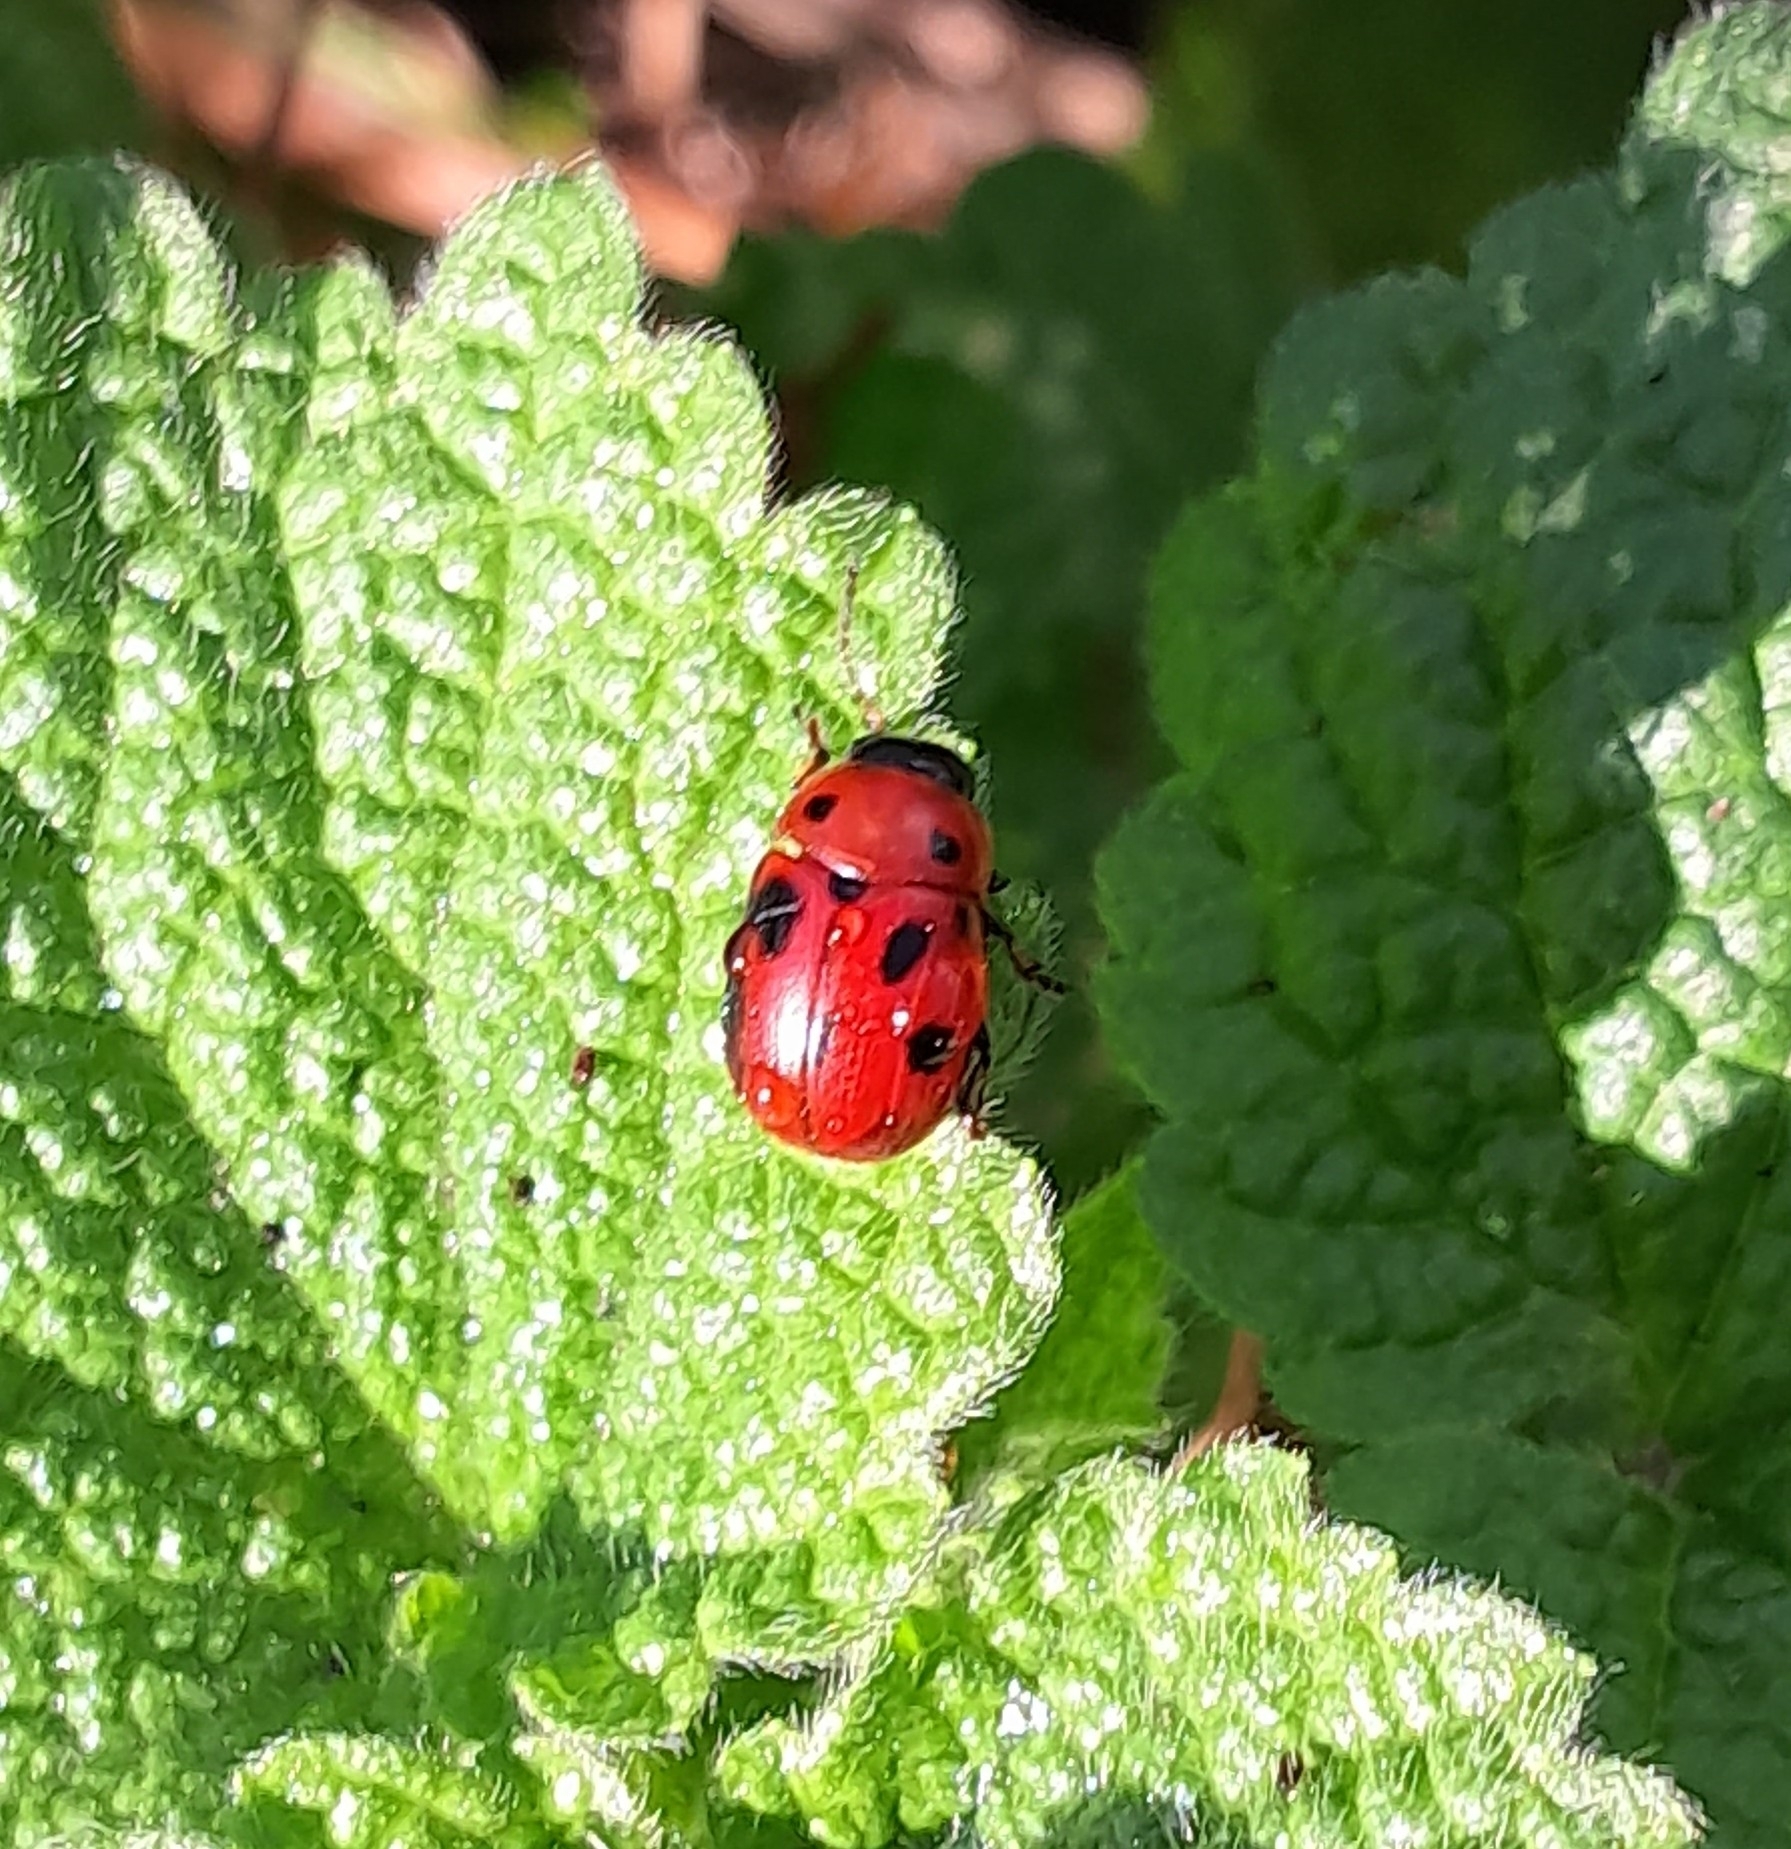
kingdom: Animalia
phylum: Arthropoda
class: Insecta
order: Coleoptera
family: Chrysomelidae
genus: Gonioctena
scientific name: Gonioctena fornicata
